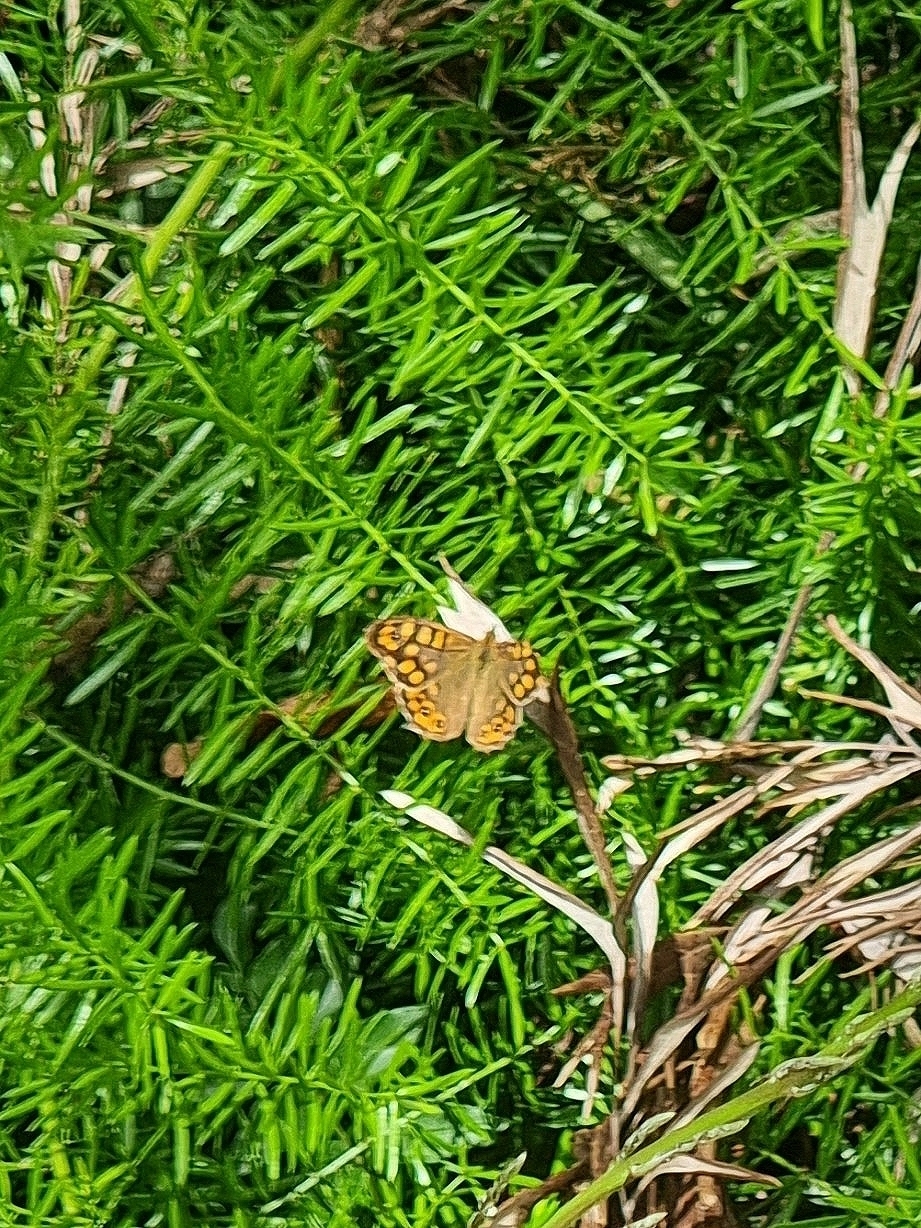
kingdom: Animalia
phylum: Arthropoda
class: Insecta
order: Lepidoptera
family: Nymphalidae
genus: Pararge
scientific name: Pararge aegeria
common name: Speckled wood
